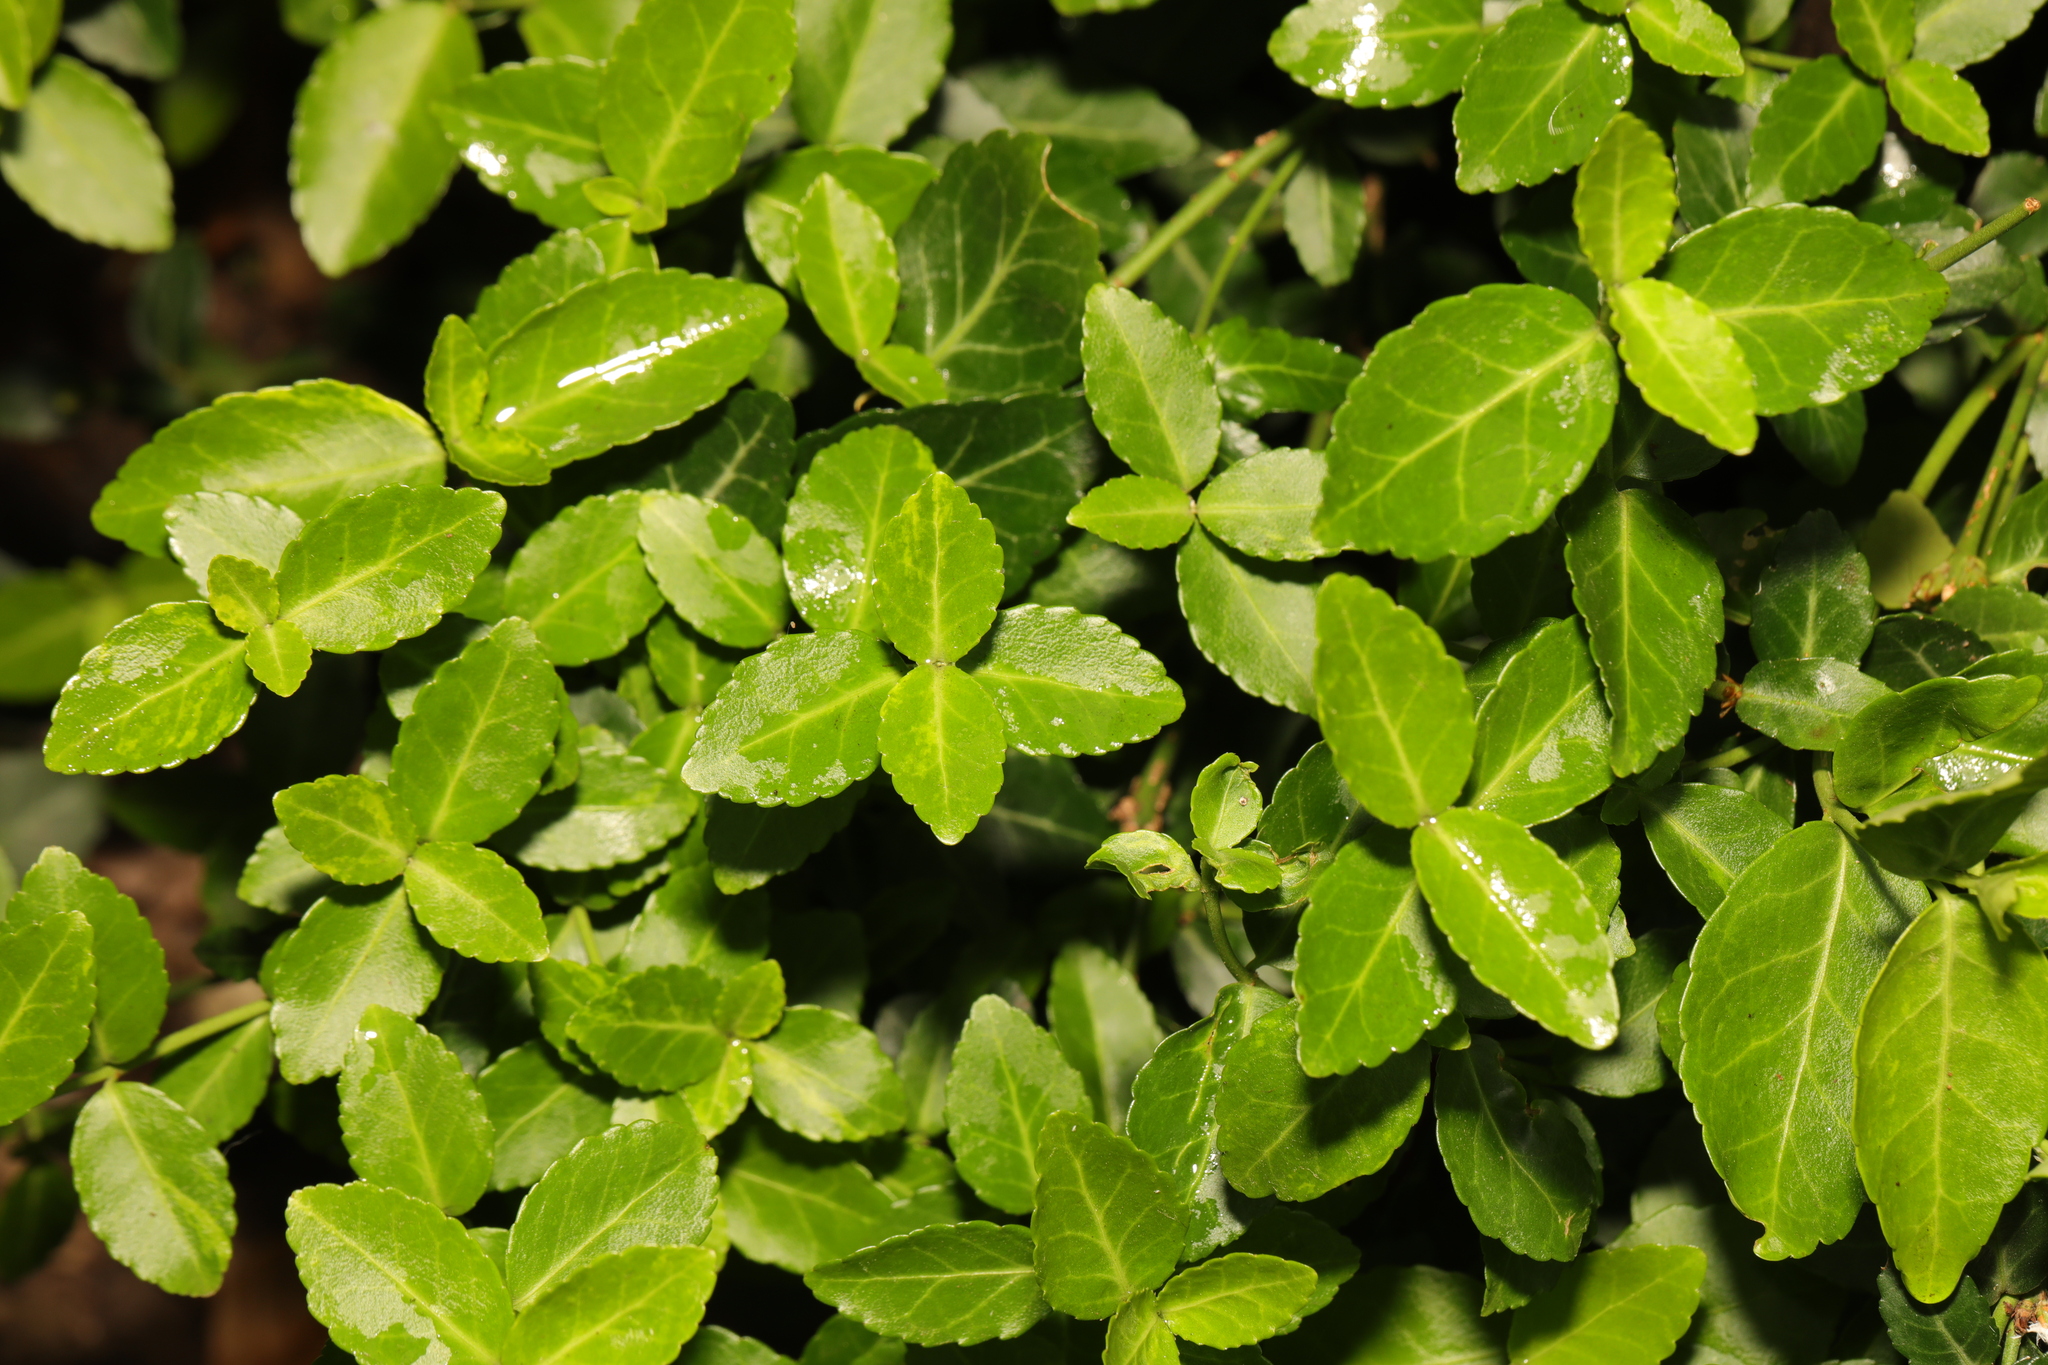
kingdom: Plantae
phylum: Tracheophyta
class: Magnoliopsida
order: Celastrales
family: Celastraceae
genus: Euonymus
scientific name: Euonymus japonicus
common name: Japanese spindletree
